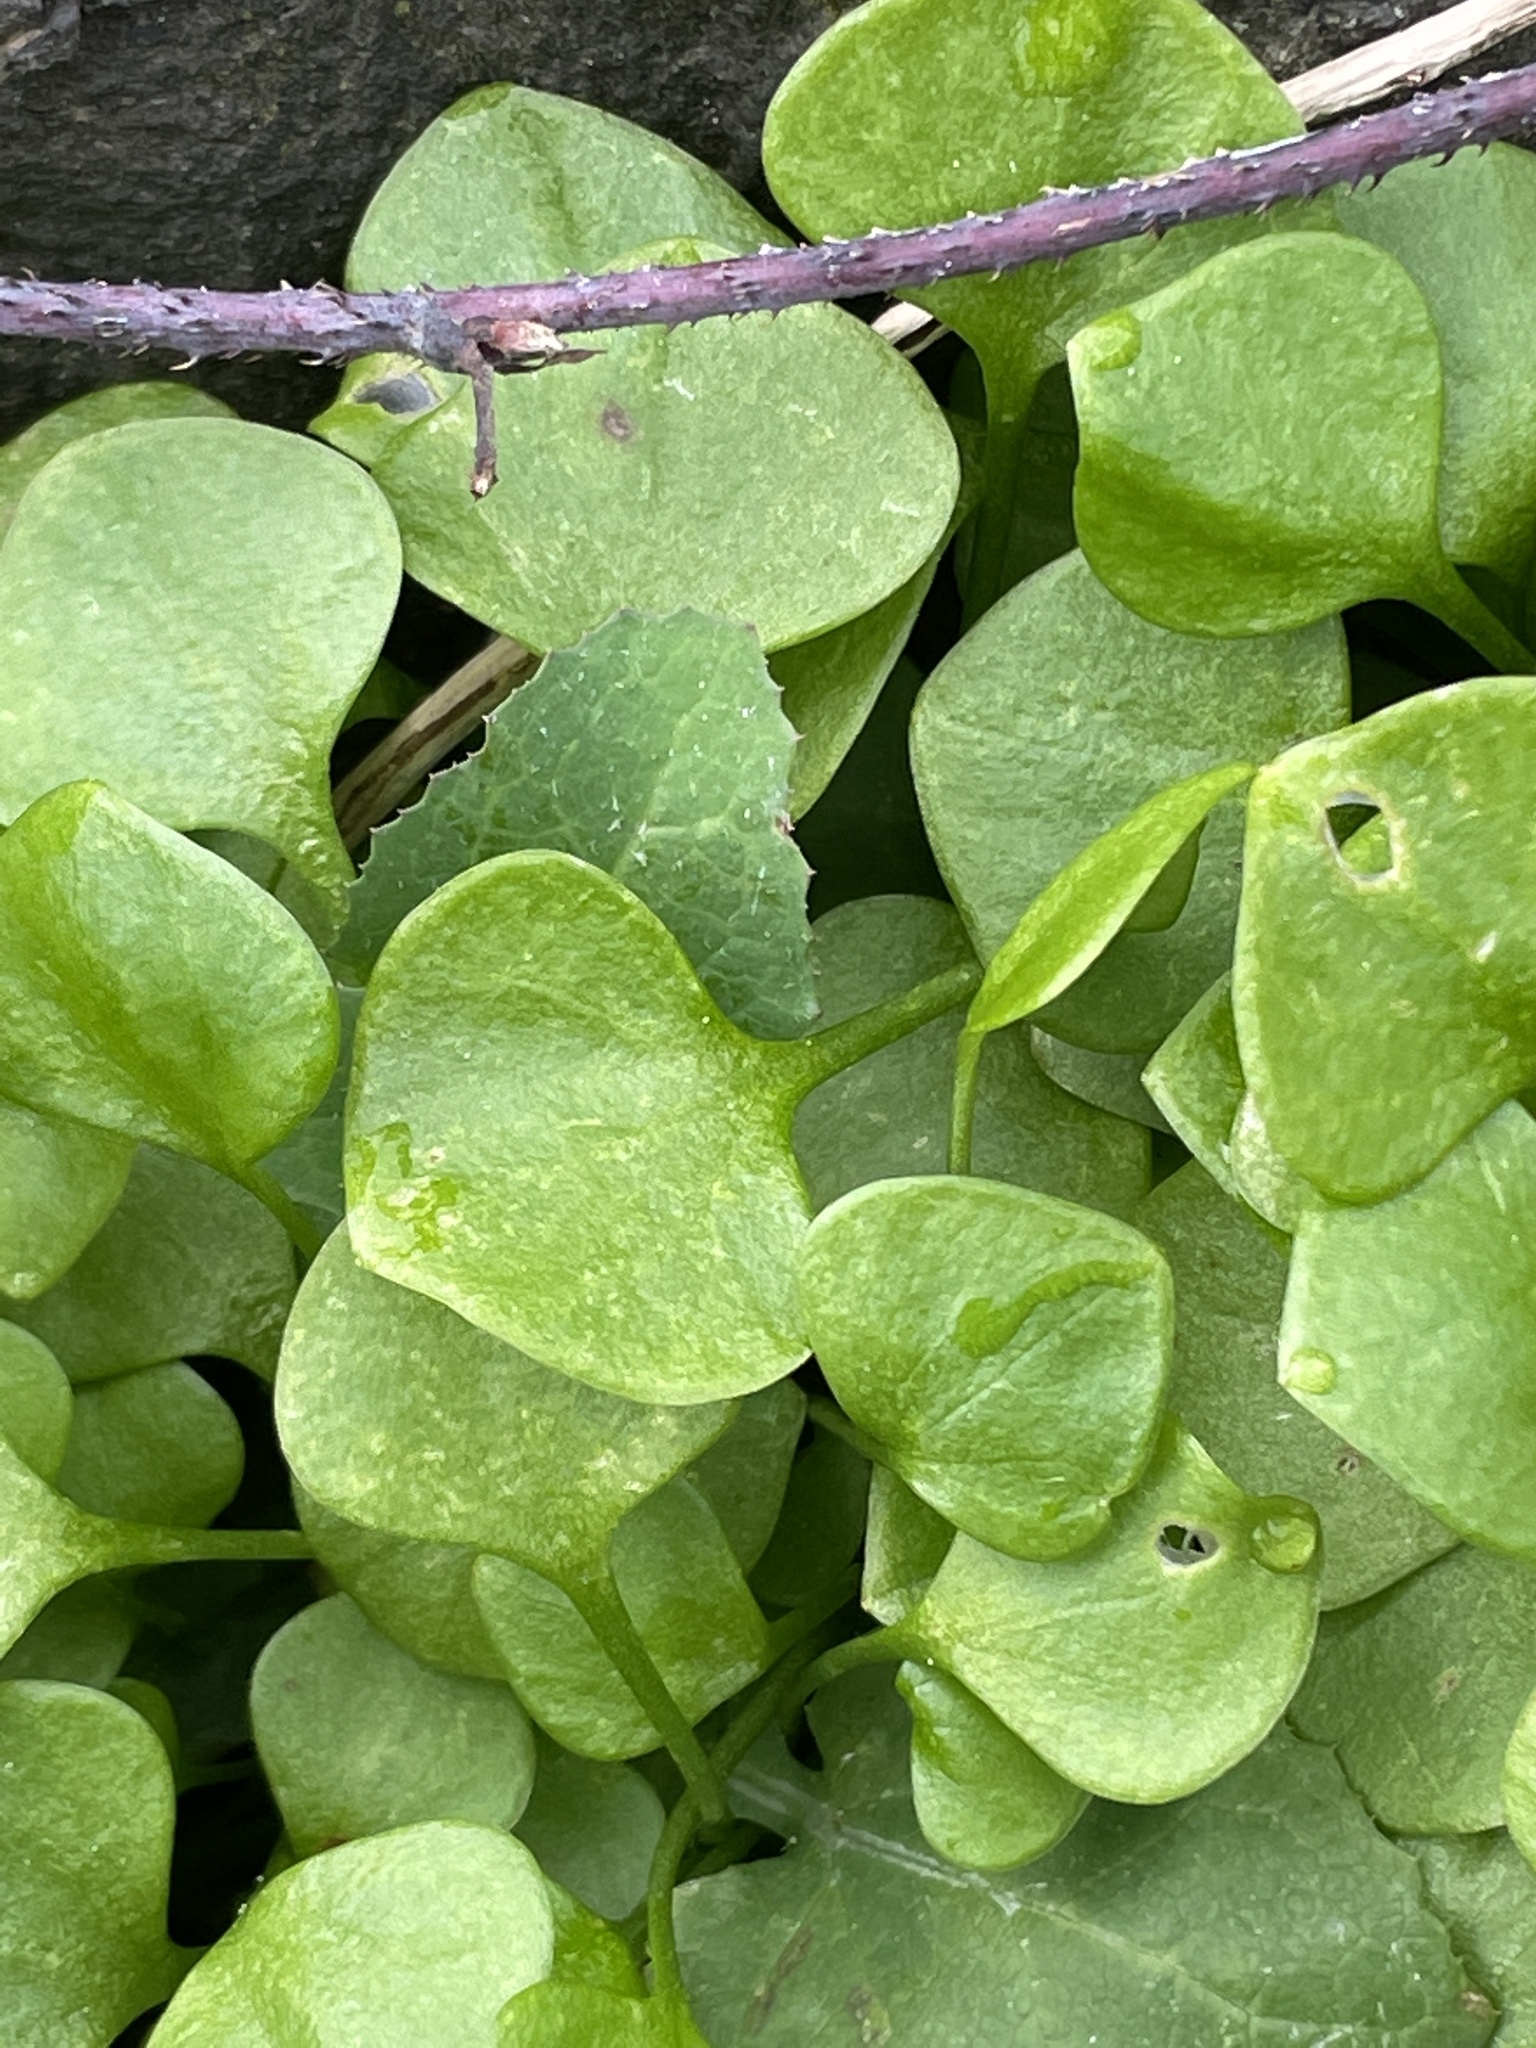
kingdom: Plantae
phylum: Tracheophyta
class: Magnoliopsida
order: Caryophyllales
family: Montiaceae
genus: Claytonia
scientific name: Claytonia perfoliata
